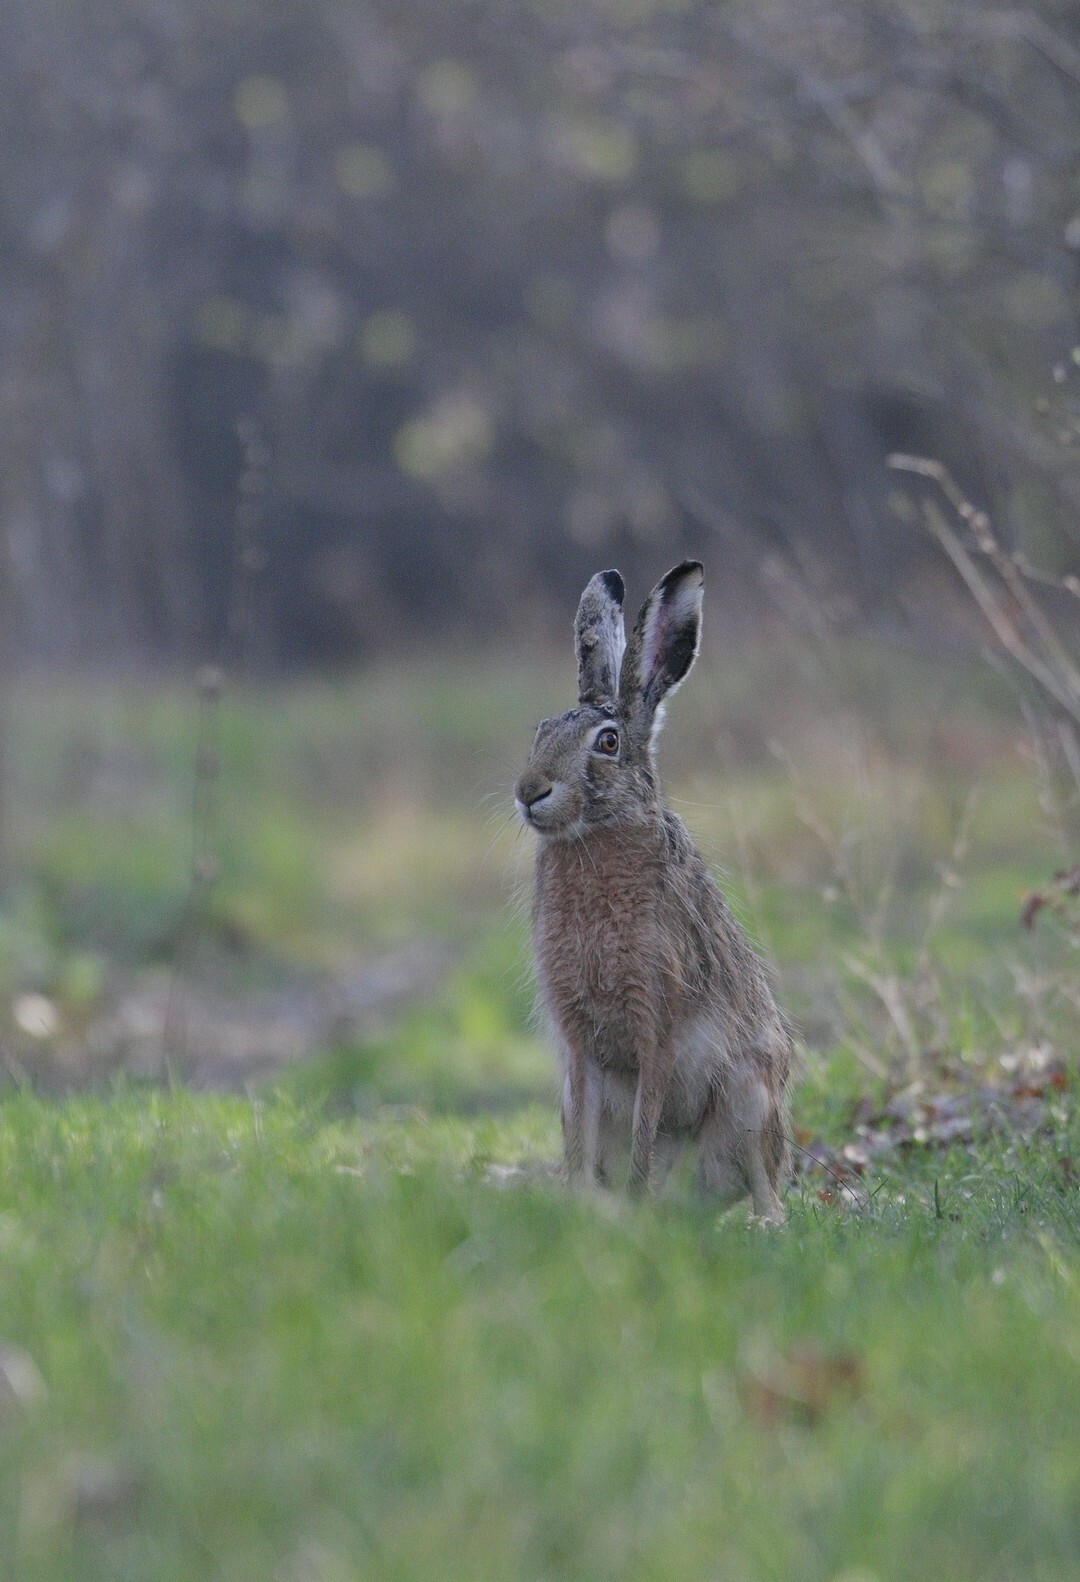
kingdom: Animalia
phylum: Chordata
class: Mammalia
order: Lagomorpha
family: Leporidae
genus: Lepus
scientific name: Lepus europaeus
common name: European hare
